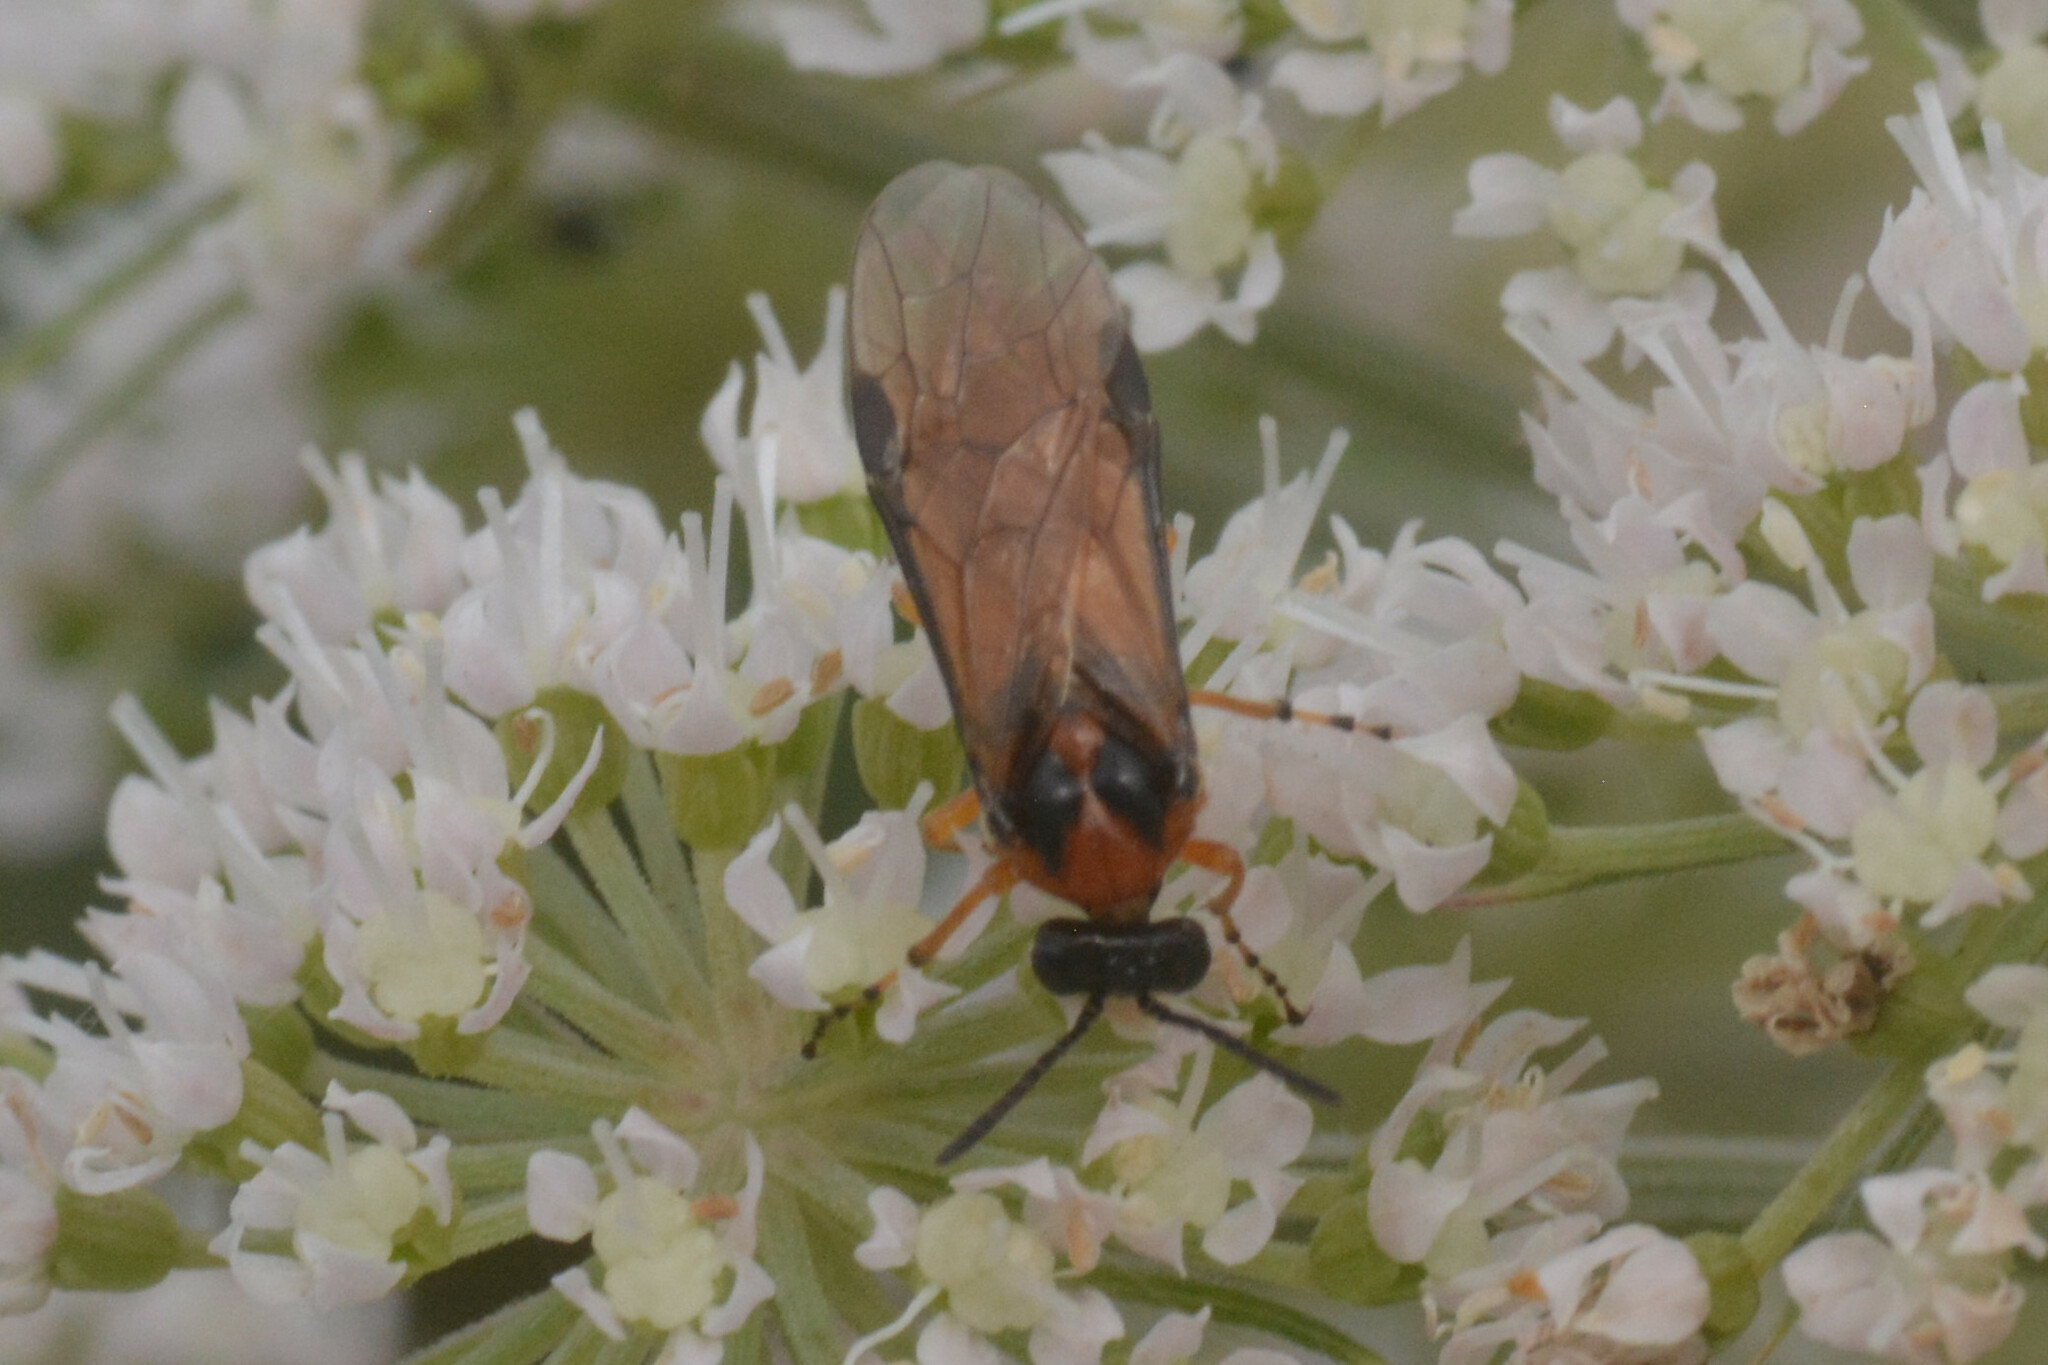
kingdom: Animalia
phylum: Arthropoda
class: Insecta
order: Hymenoptera
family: Tenthredinidae
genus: Athalia
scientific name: Athalia rosae
